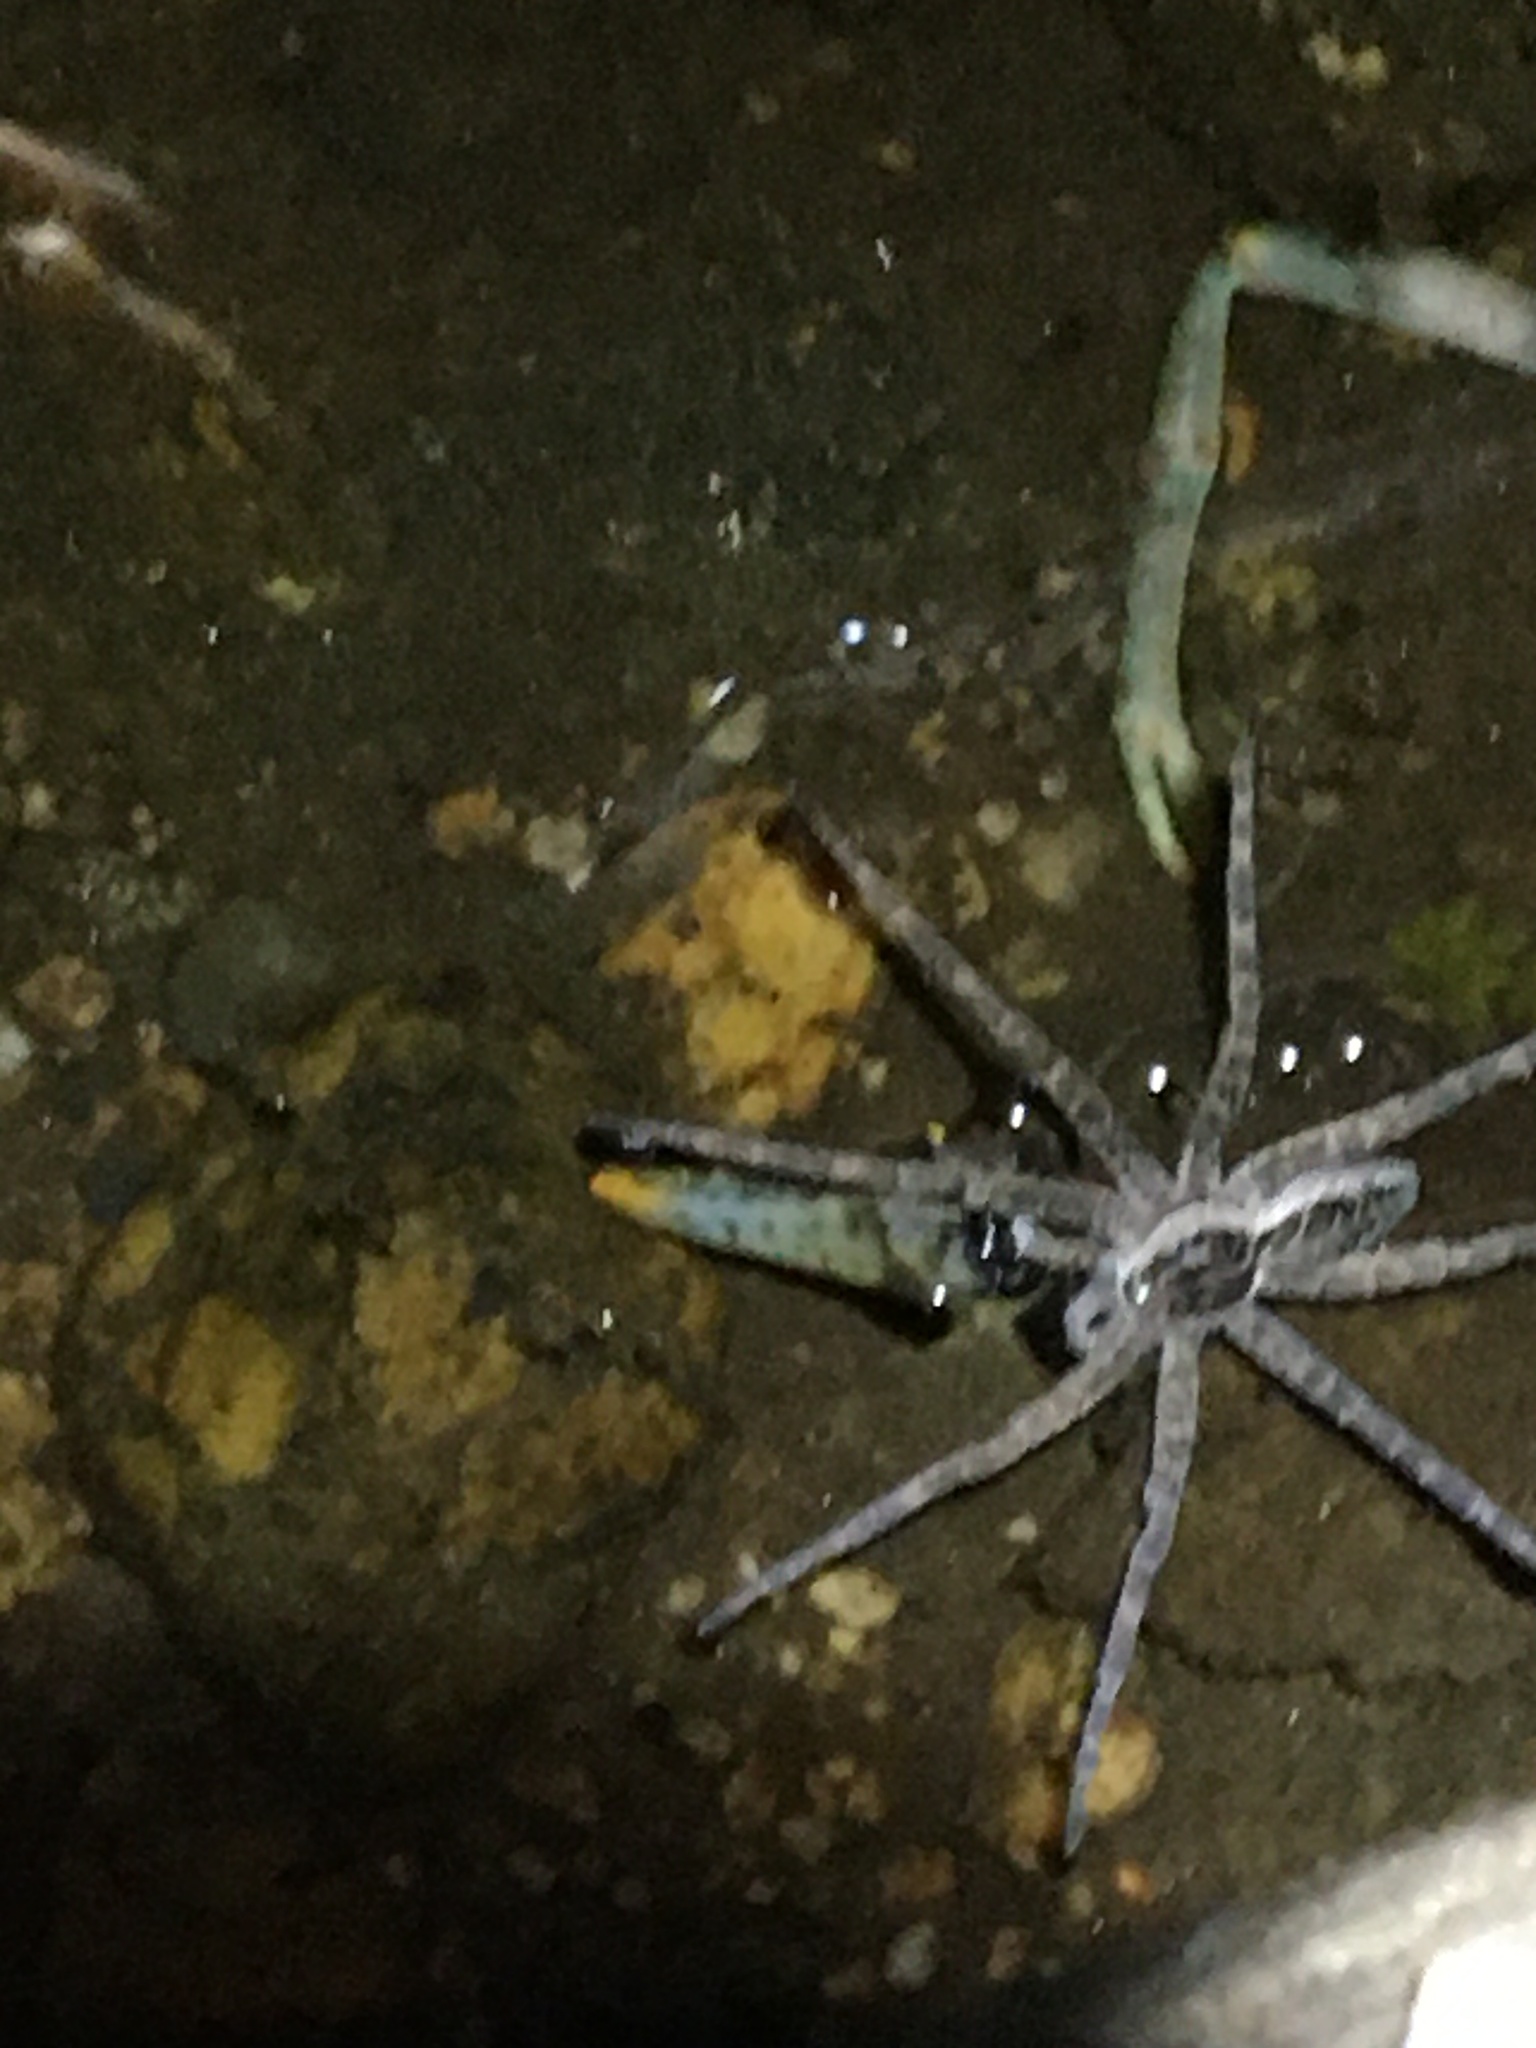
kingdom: Animalia
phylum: Arthropoda
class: Arachnida
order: Araneae
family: Pisauridae
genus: Dolomedes
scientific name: Dolomedes scriptus
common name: Striped fishing spider
